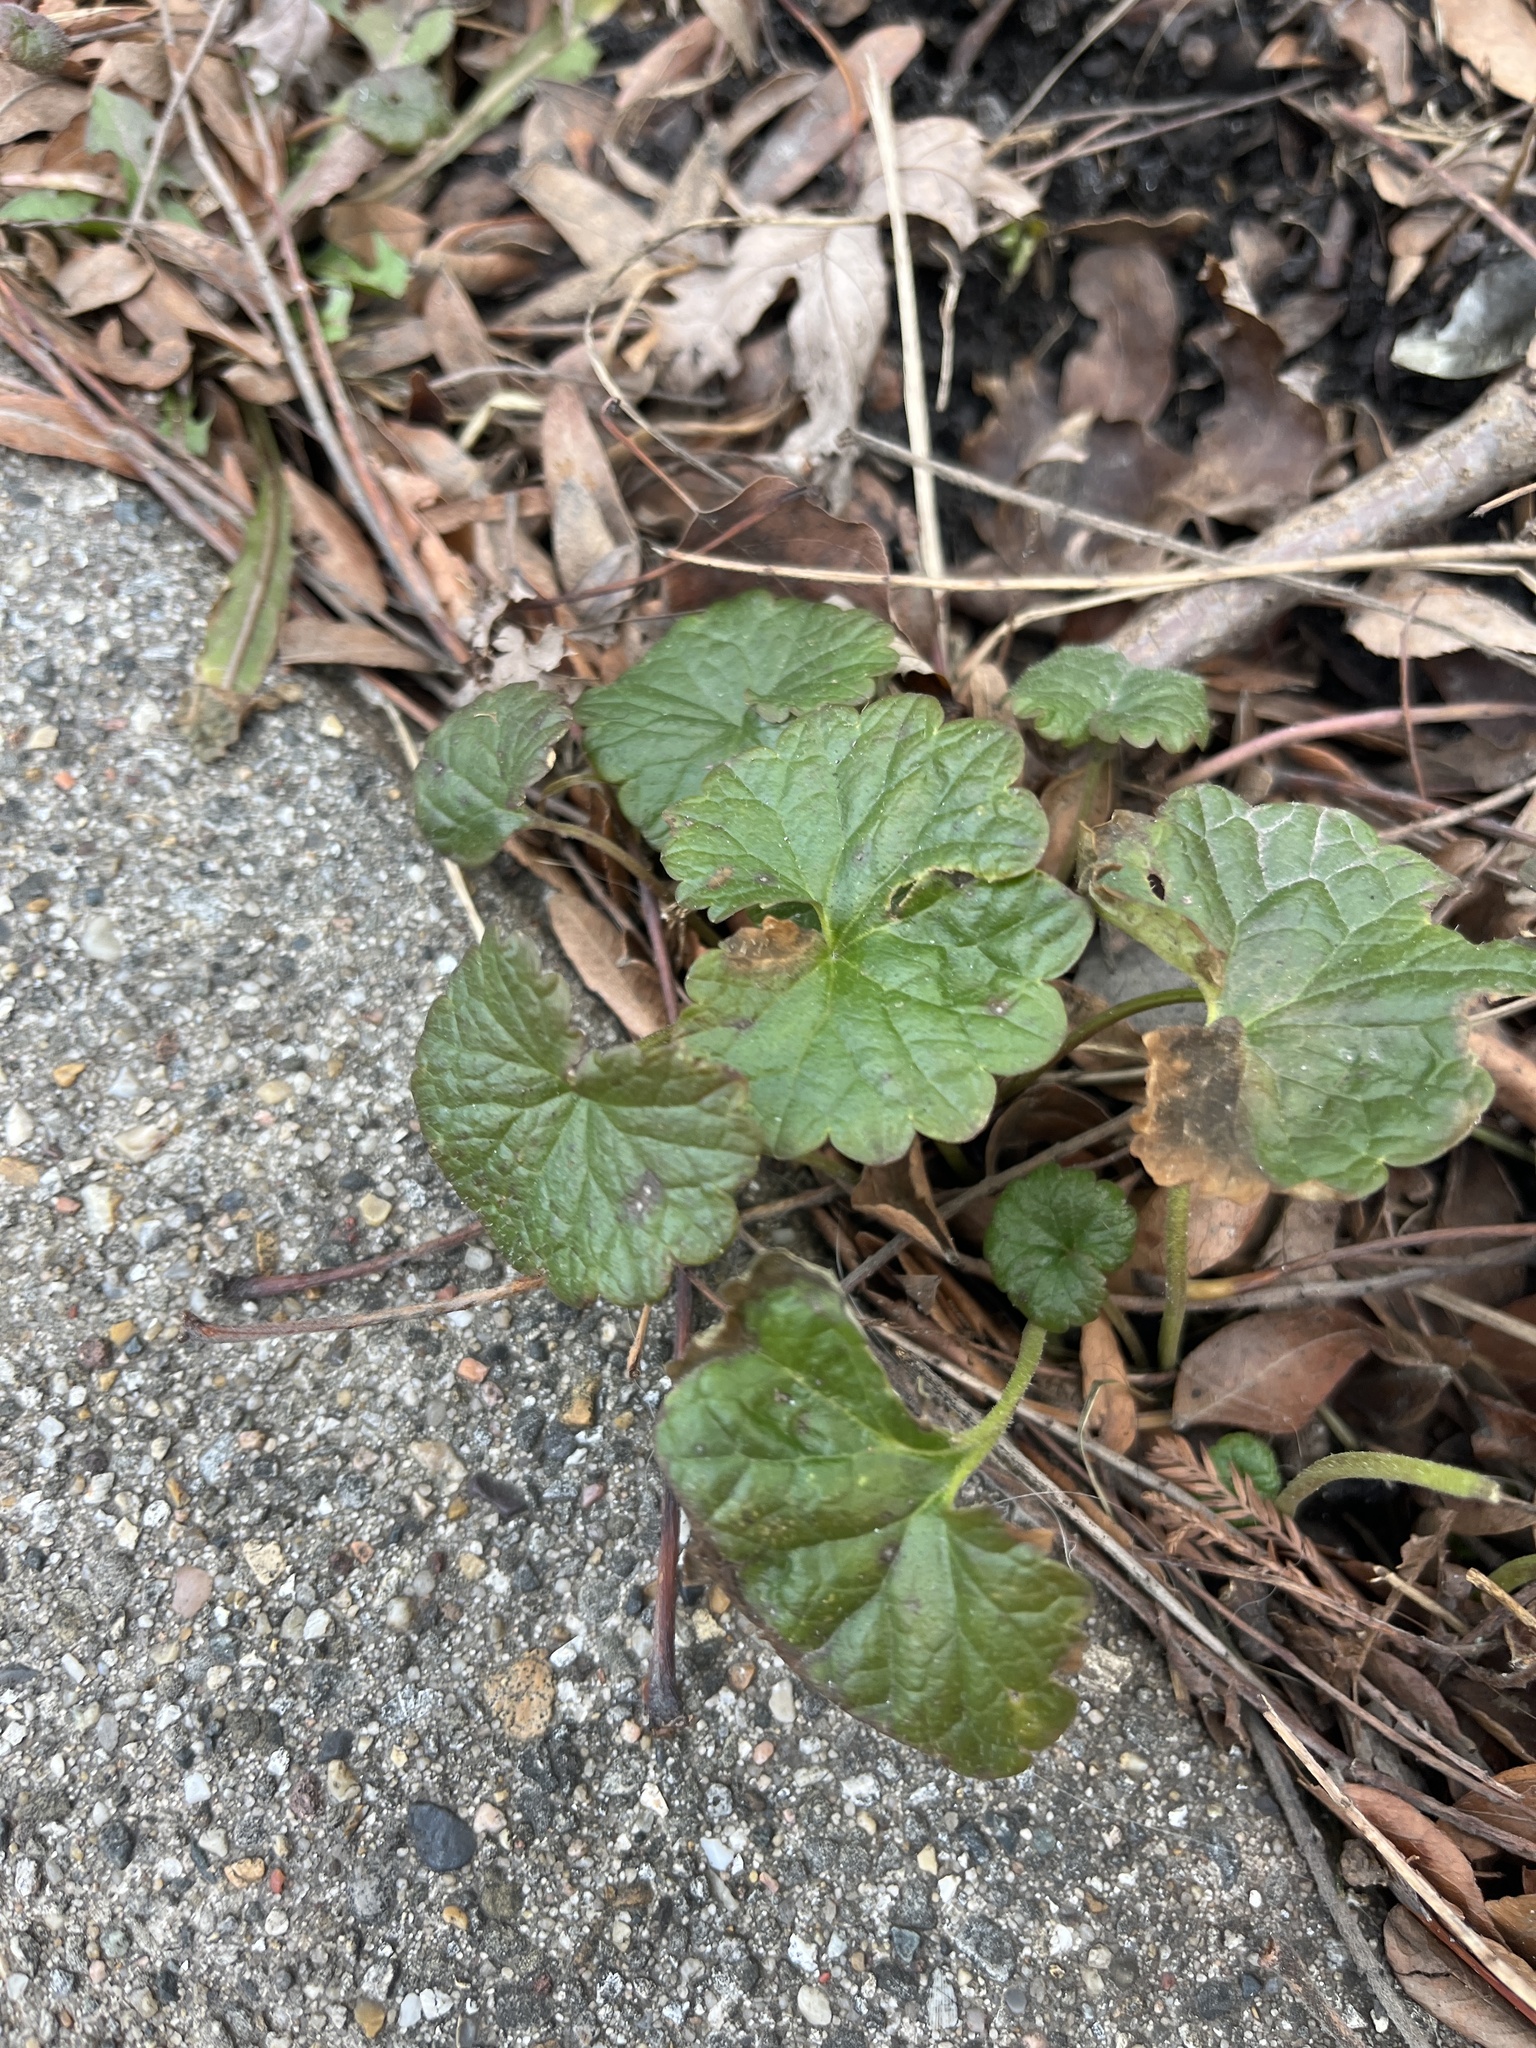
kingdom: Plantae
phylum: Tracheophyta
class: Magnoliopsida
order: Lamiales
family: Lamiaceae
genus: Glechoma
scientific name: Glechoma hederacea
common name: Ground ivy
